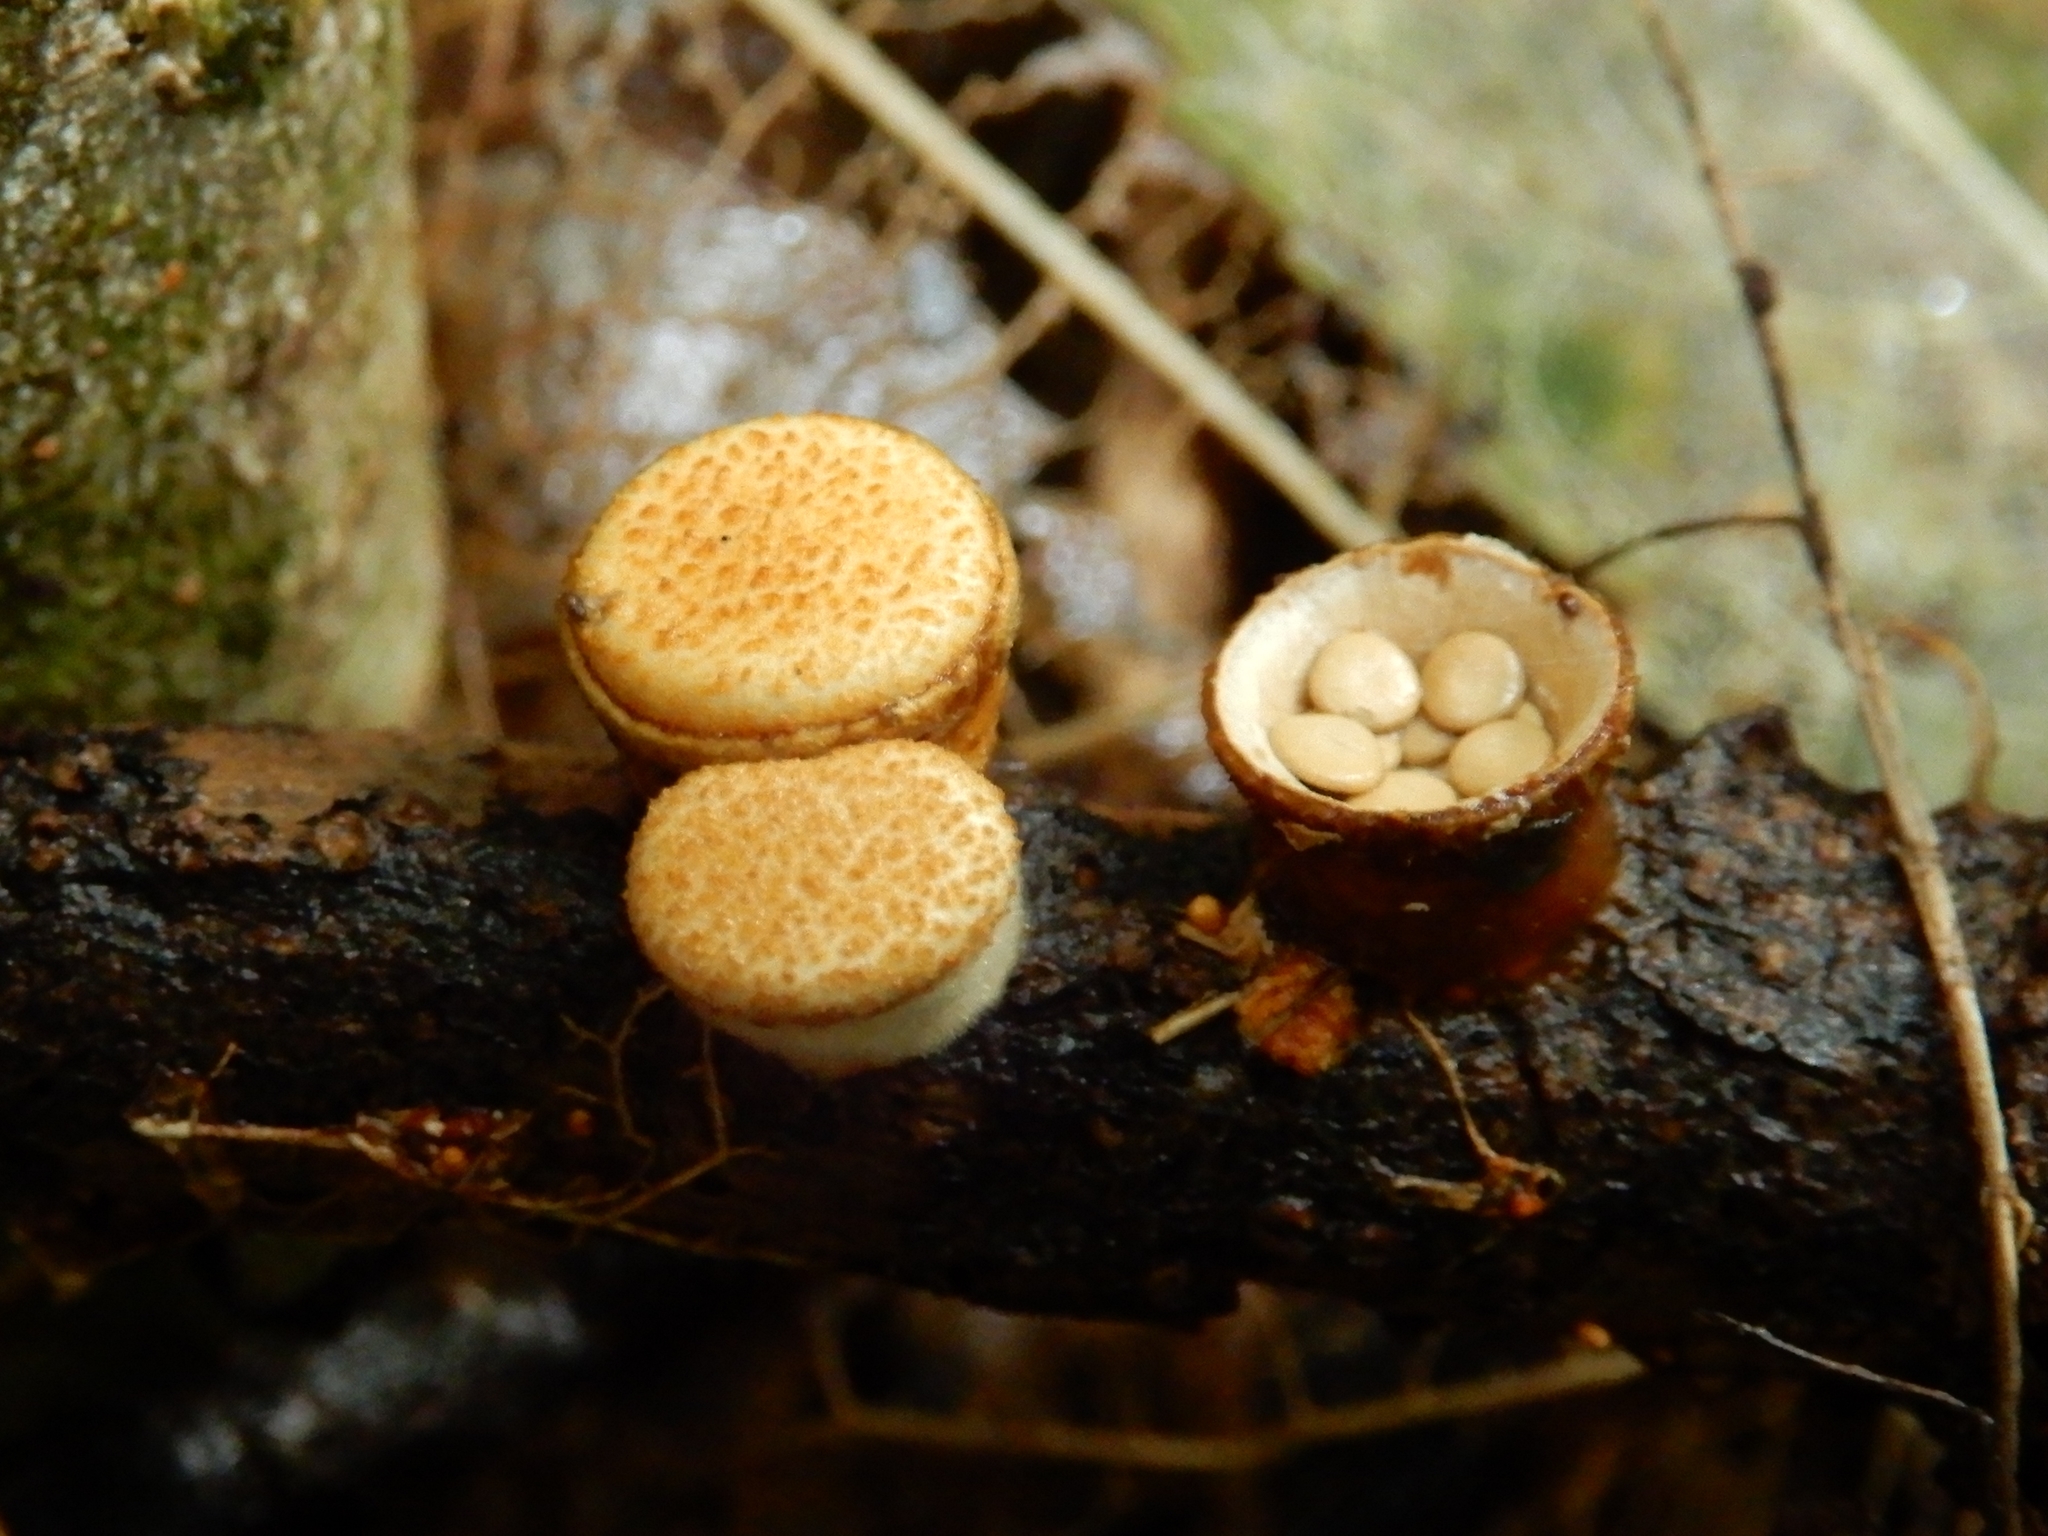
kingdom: Fungi
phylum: Basidiomycota
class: Agaricomycetes
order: Agaricales
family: Nidulariaceae
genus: Crucibulum
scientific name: Crucibulum laeve
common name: Common bird's nest
